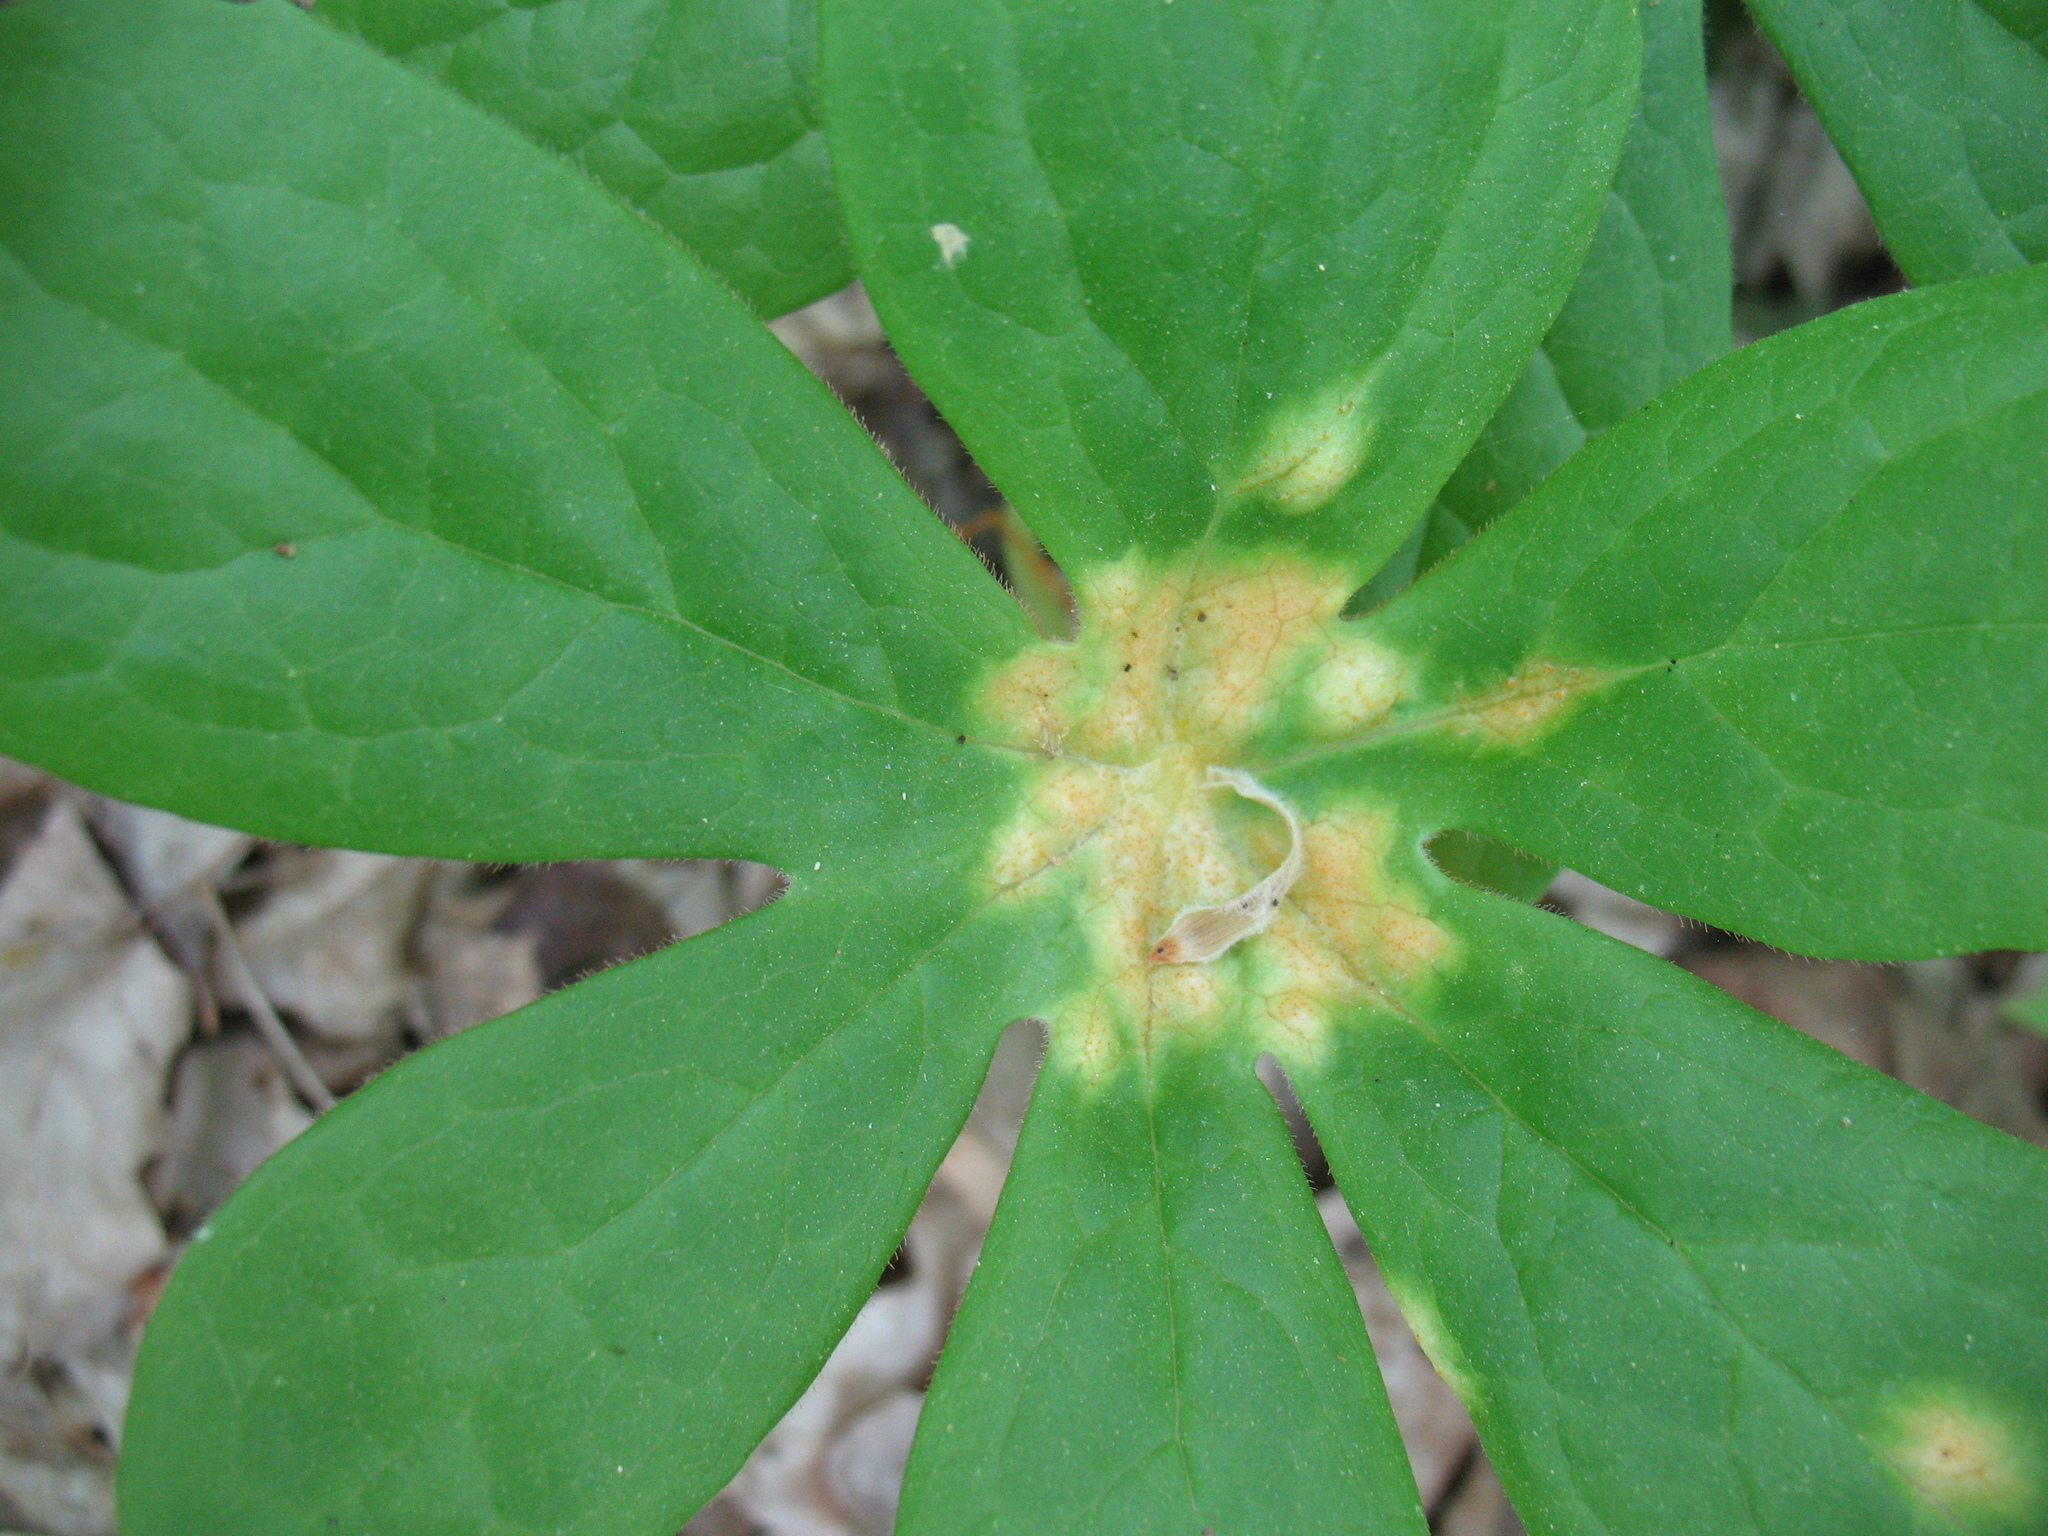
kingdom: Fungi
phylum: Basidiomycota
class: Pucciniomycetes
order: Pucciniales
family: Pucciniaceae
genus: Puccinia
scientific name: Puccinia podophylli
